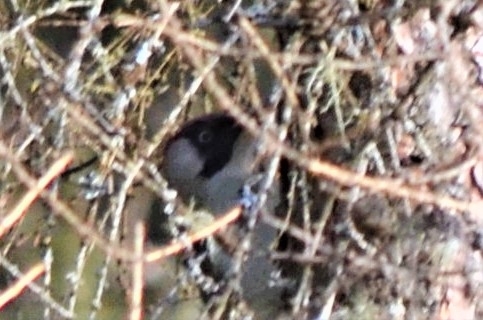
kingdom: Animalia
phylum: Chordata
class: Aves
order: Piciformes
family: Picidae
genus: Picus
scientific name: Picus viridis
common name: European green woodpecker
